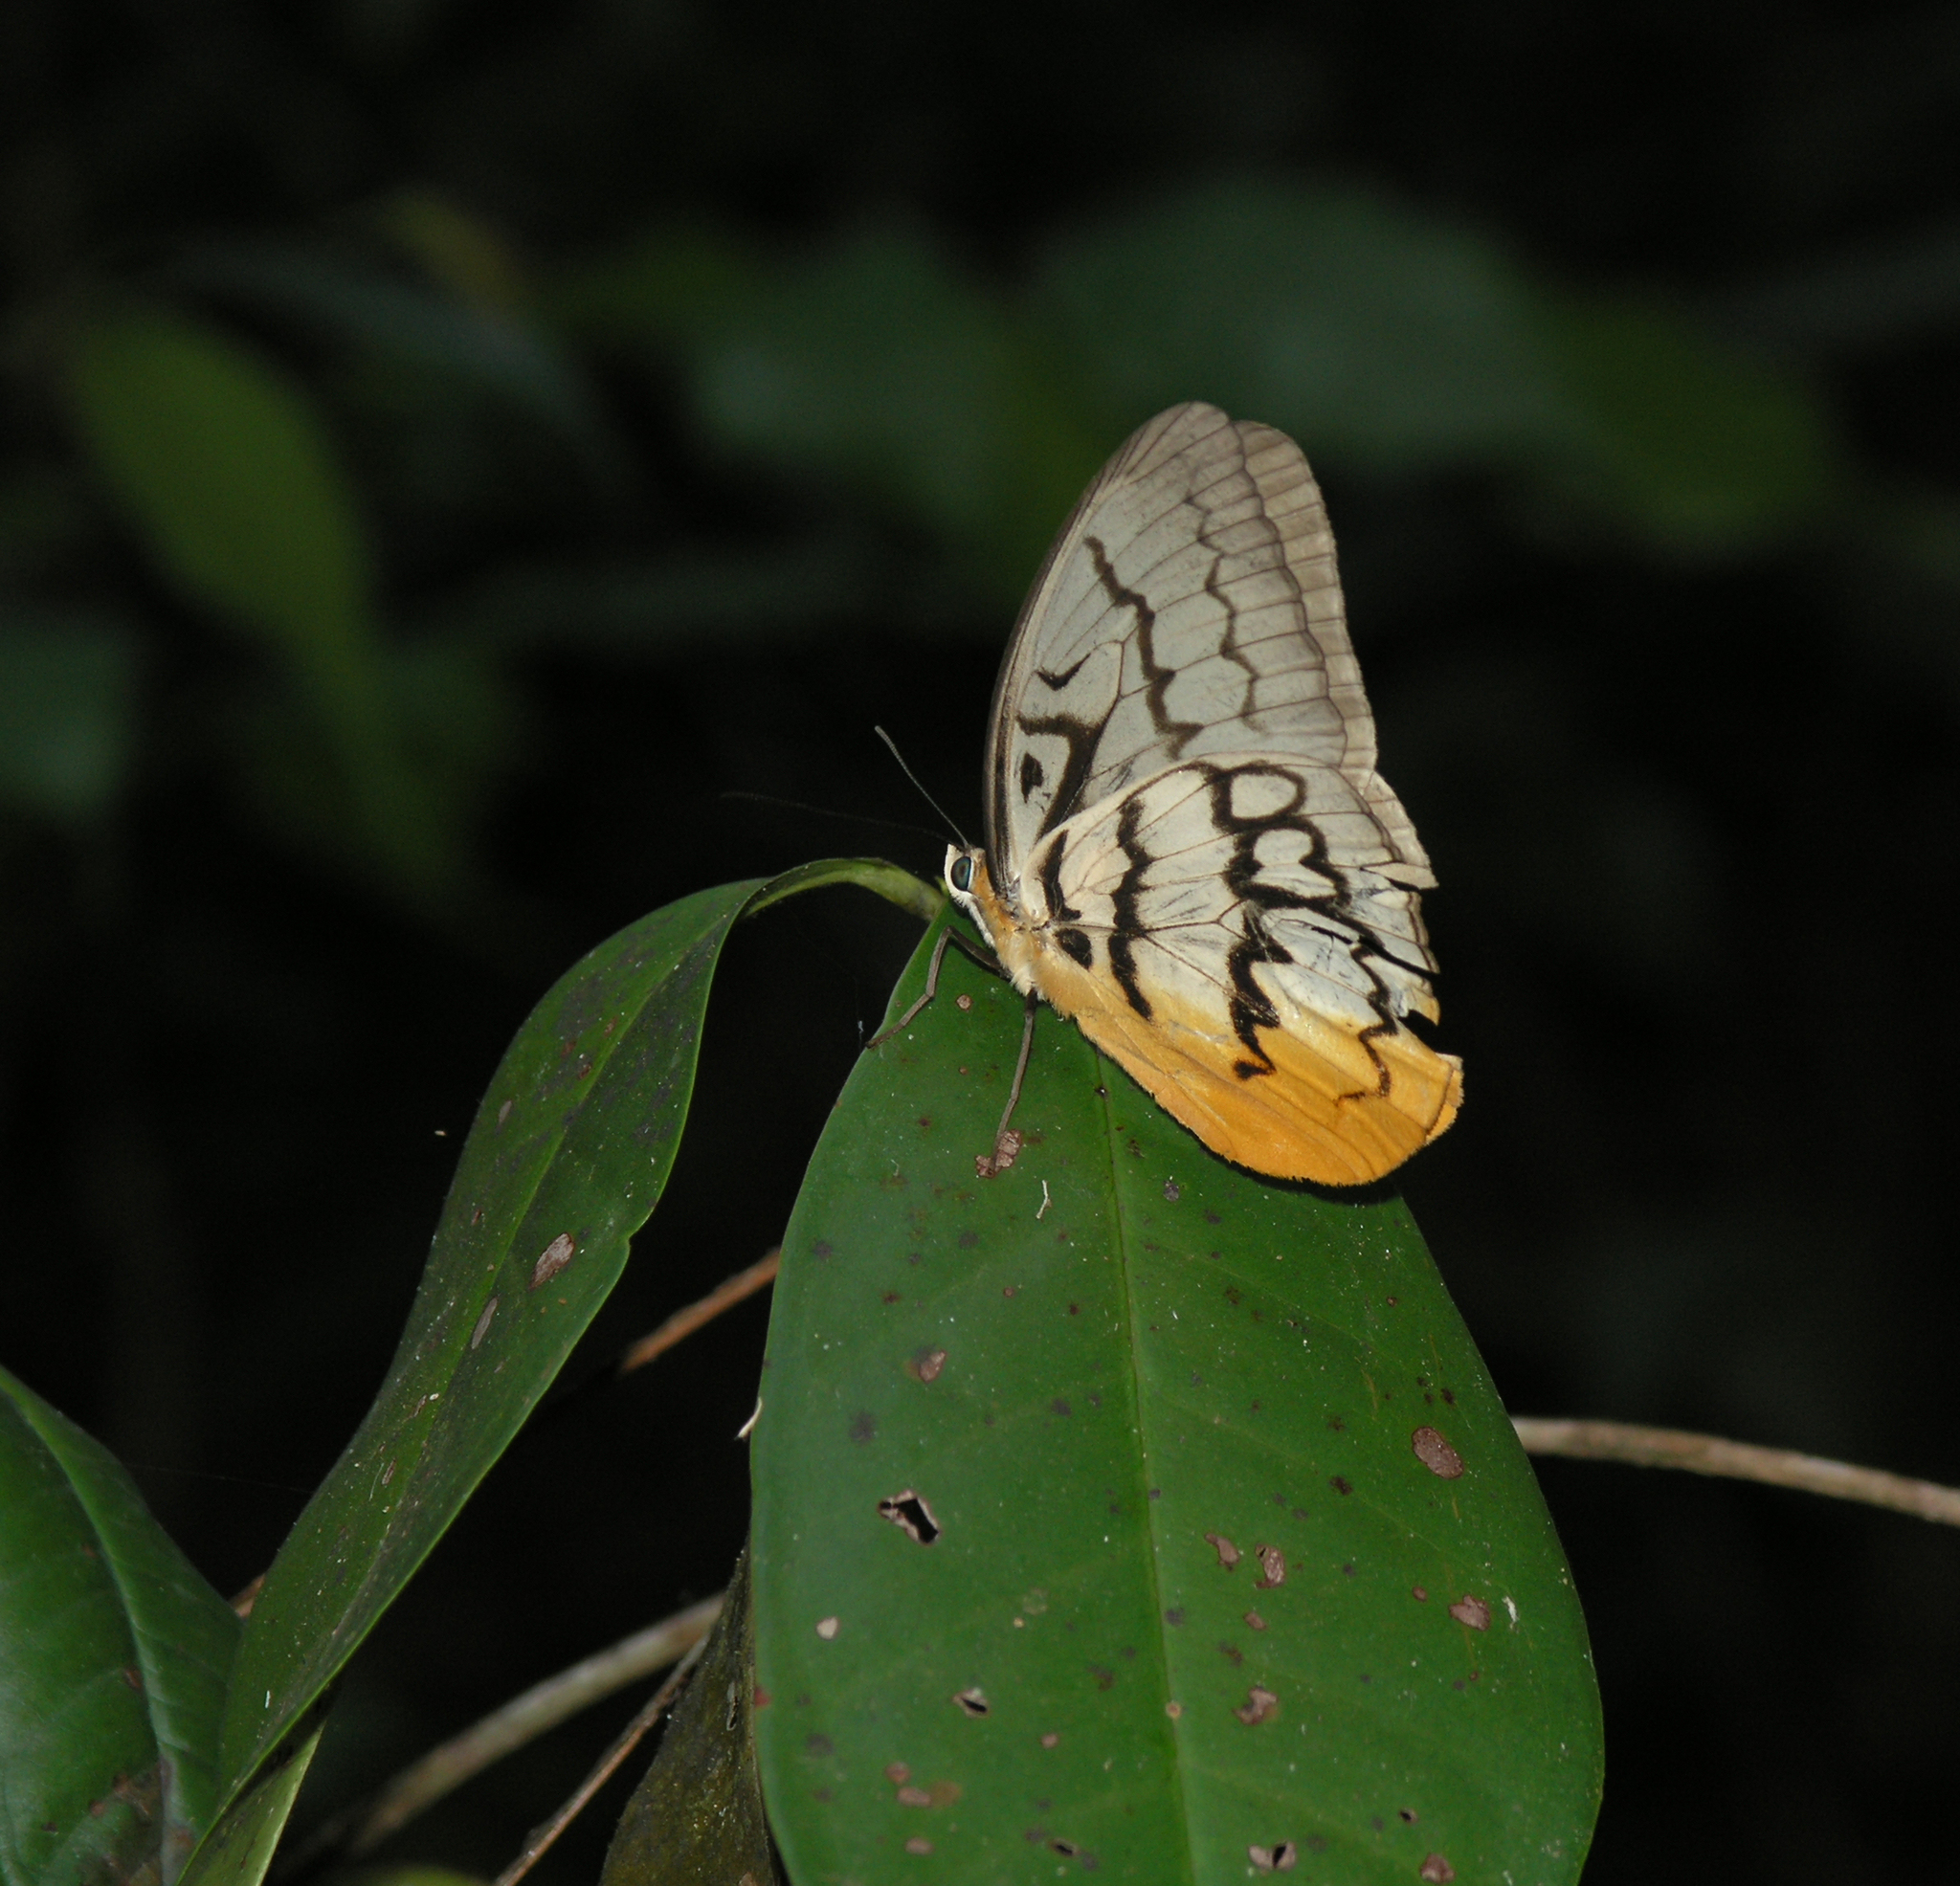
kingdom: Animalia
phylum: Arthropoda
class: Insecta
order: Lepidoptera
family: Nymphalidae
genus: Faunis
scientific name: Faunis Melanocyma faunula
